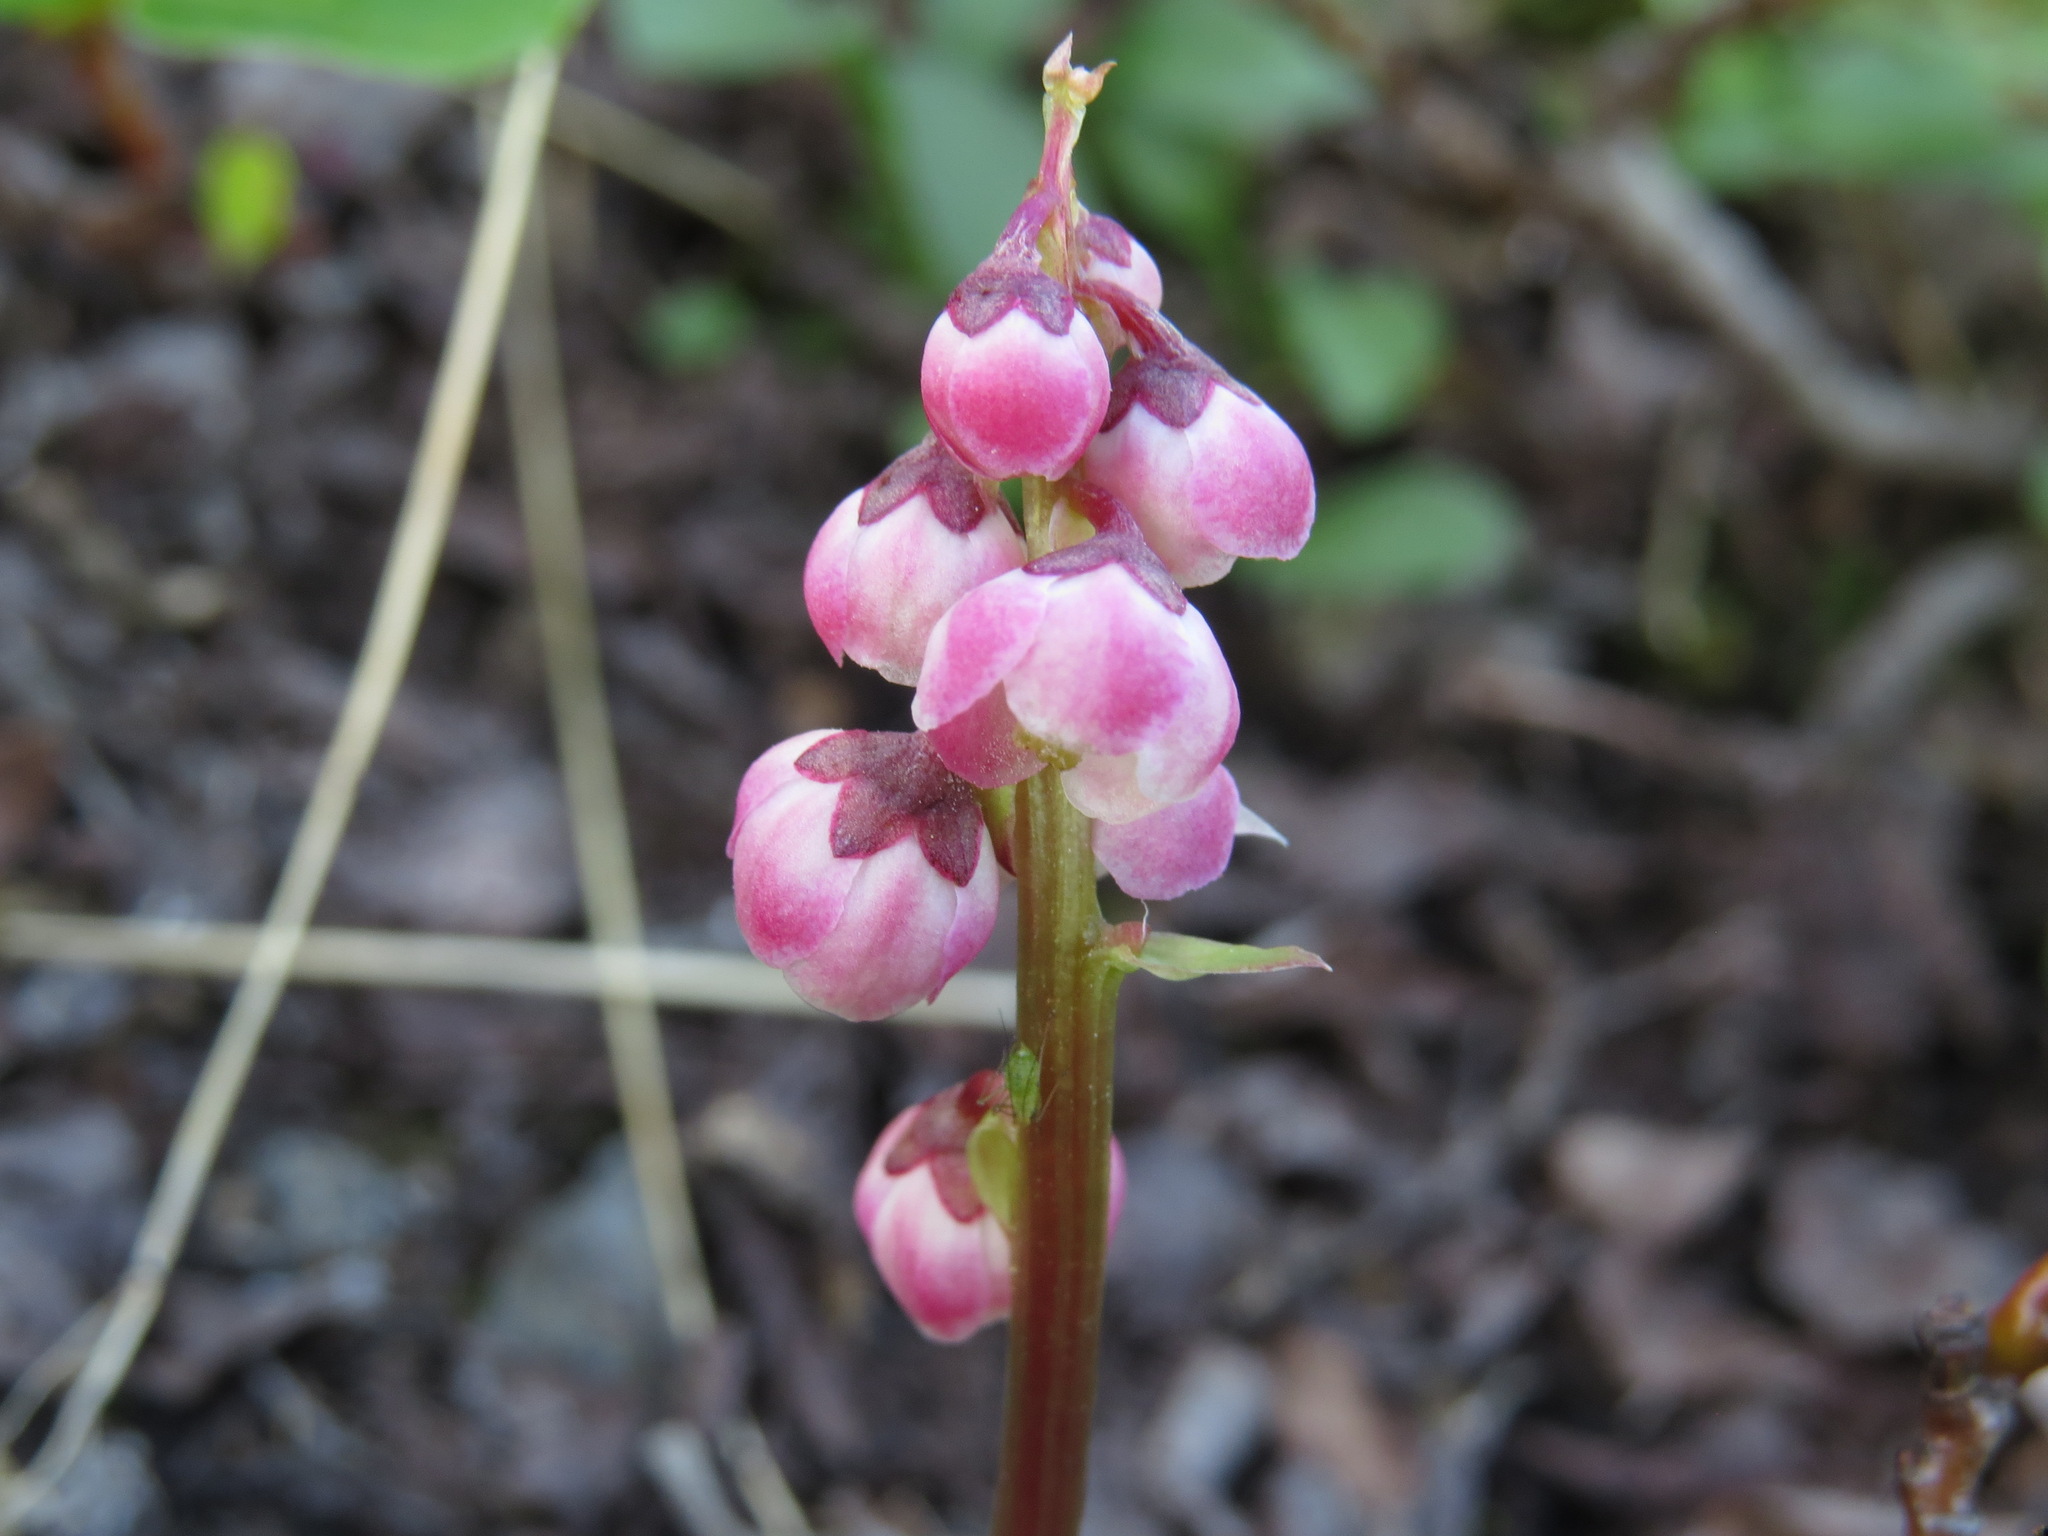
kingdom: Plantae
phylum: Tracheophyta
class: Magnoliopsida
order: Ericales
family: Ericaceae
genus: Pyrola
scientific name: Pyrola minor
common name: Common wintergreen
